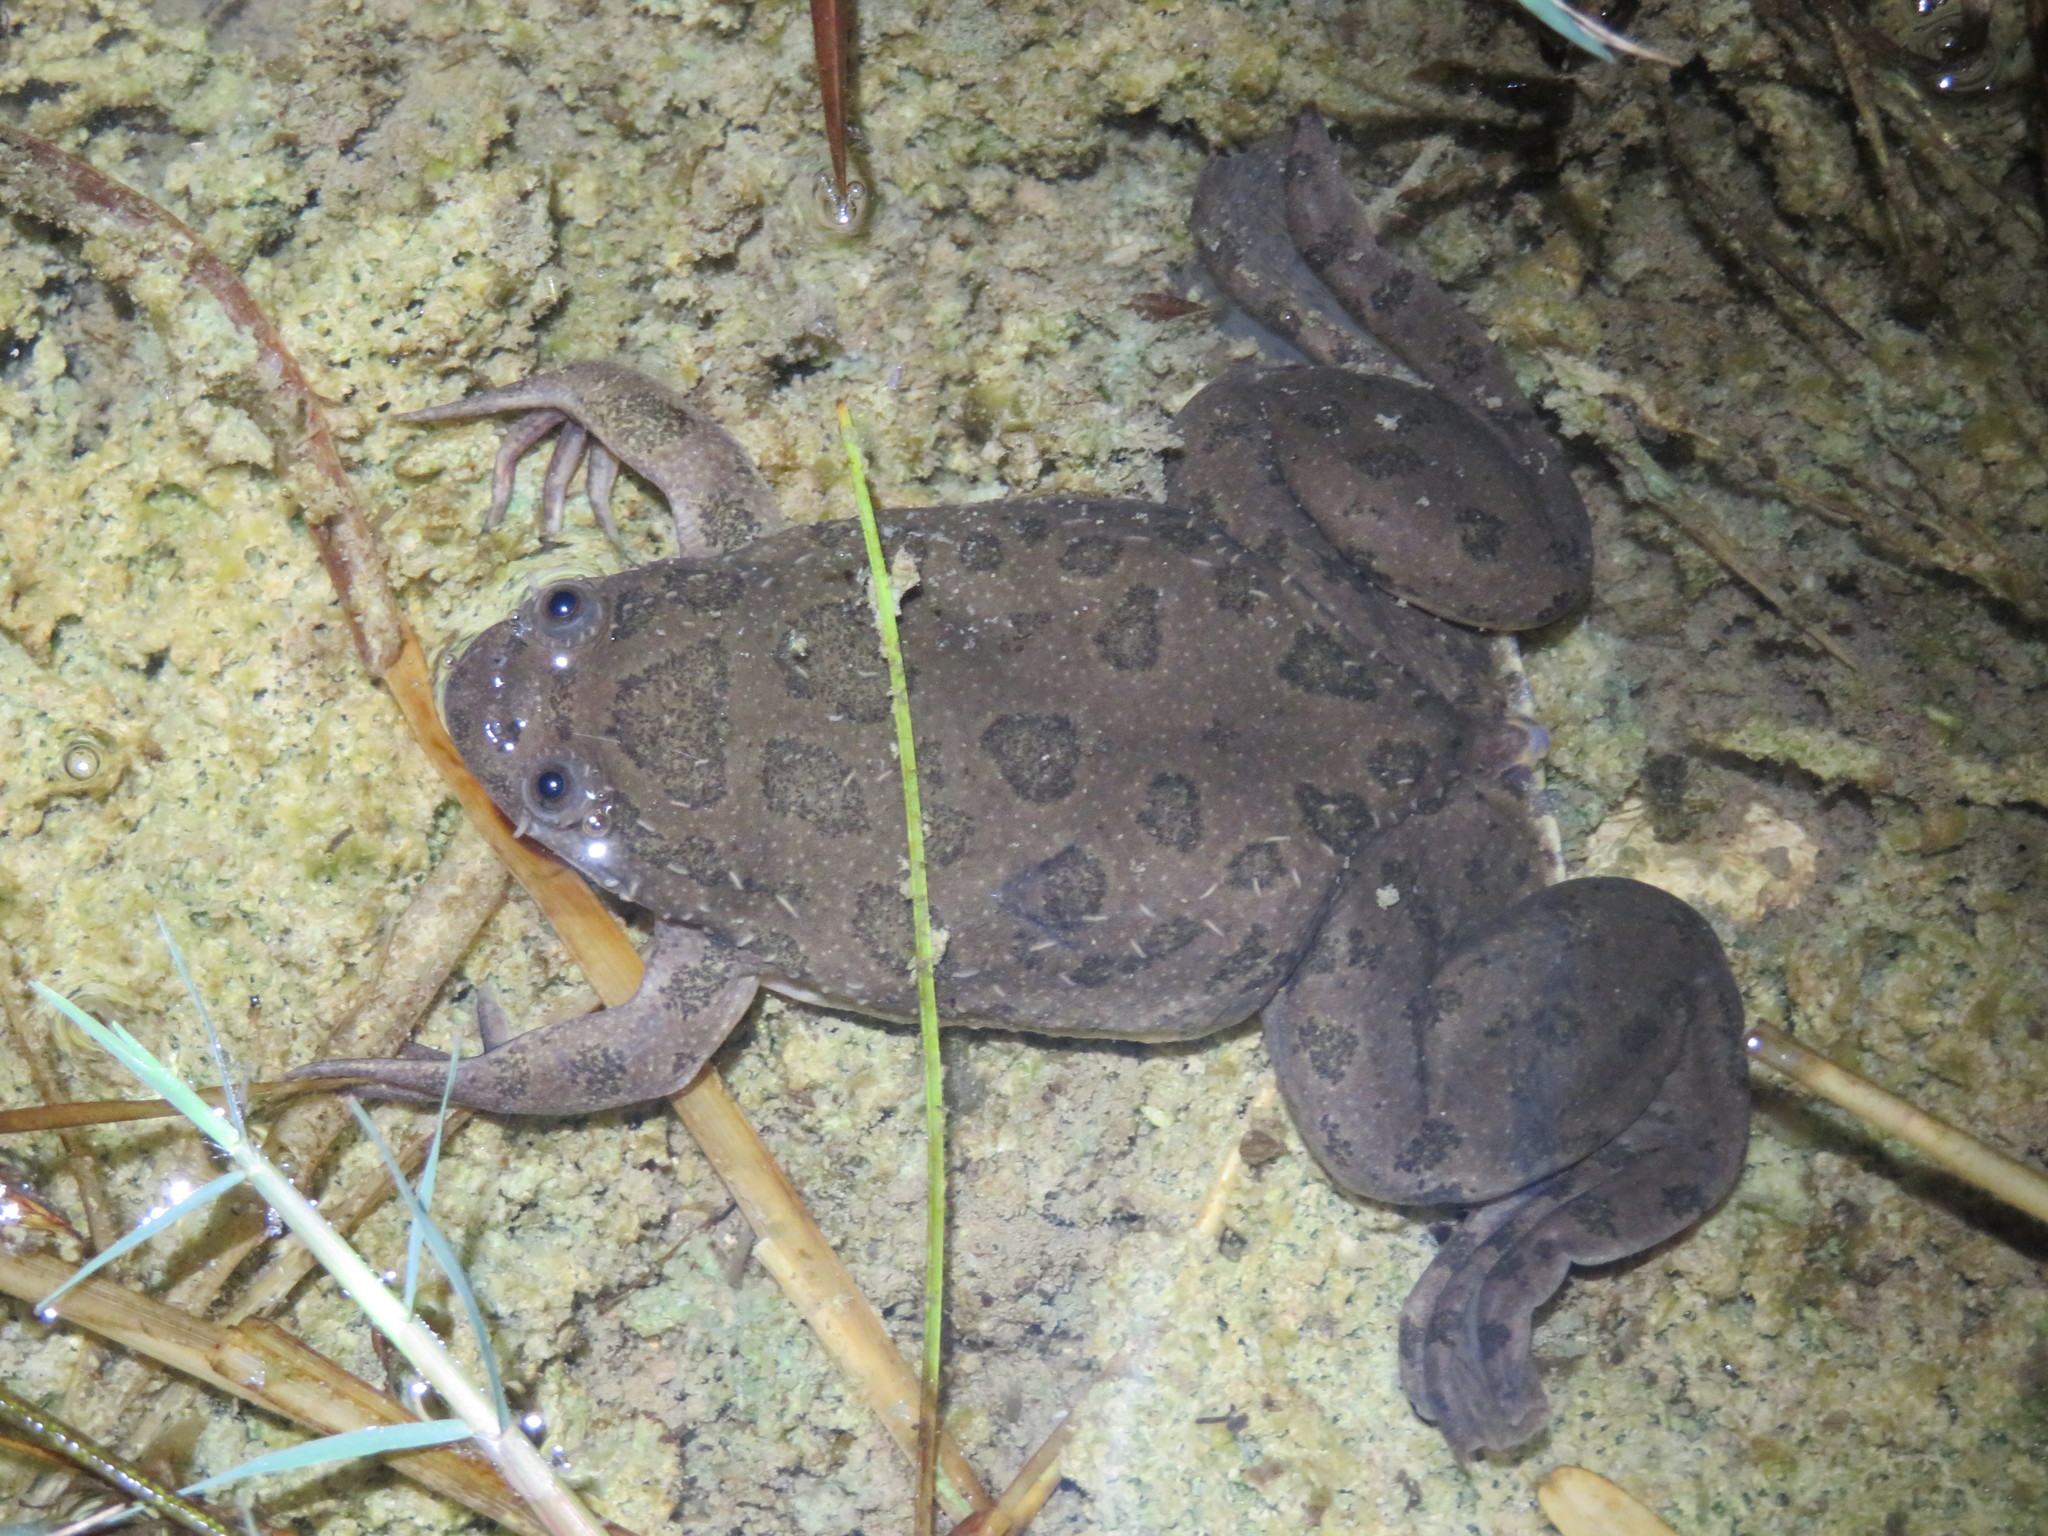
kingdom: Animalia
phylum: Chordata
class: Amphibia
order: Anura
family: Pipidae
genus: Xenopus
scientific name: Xenopus muelleri
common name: Muller's clawed frog
